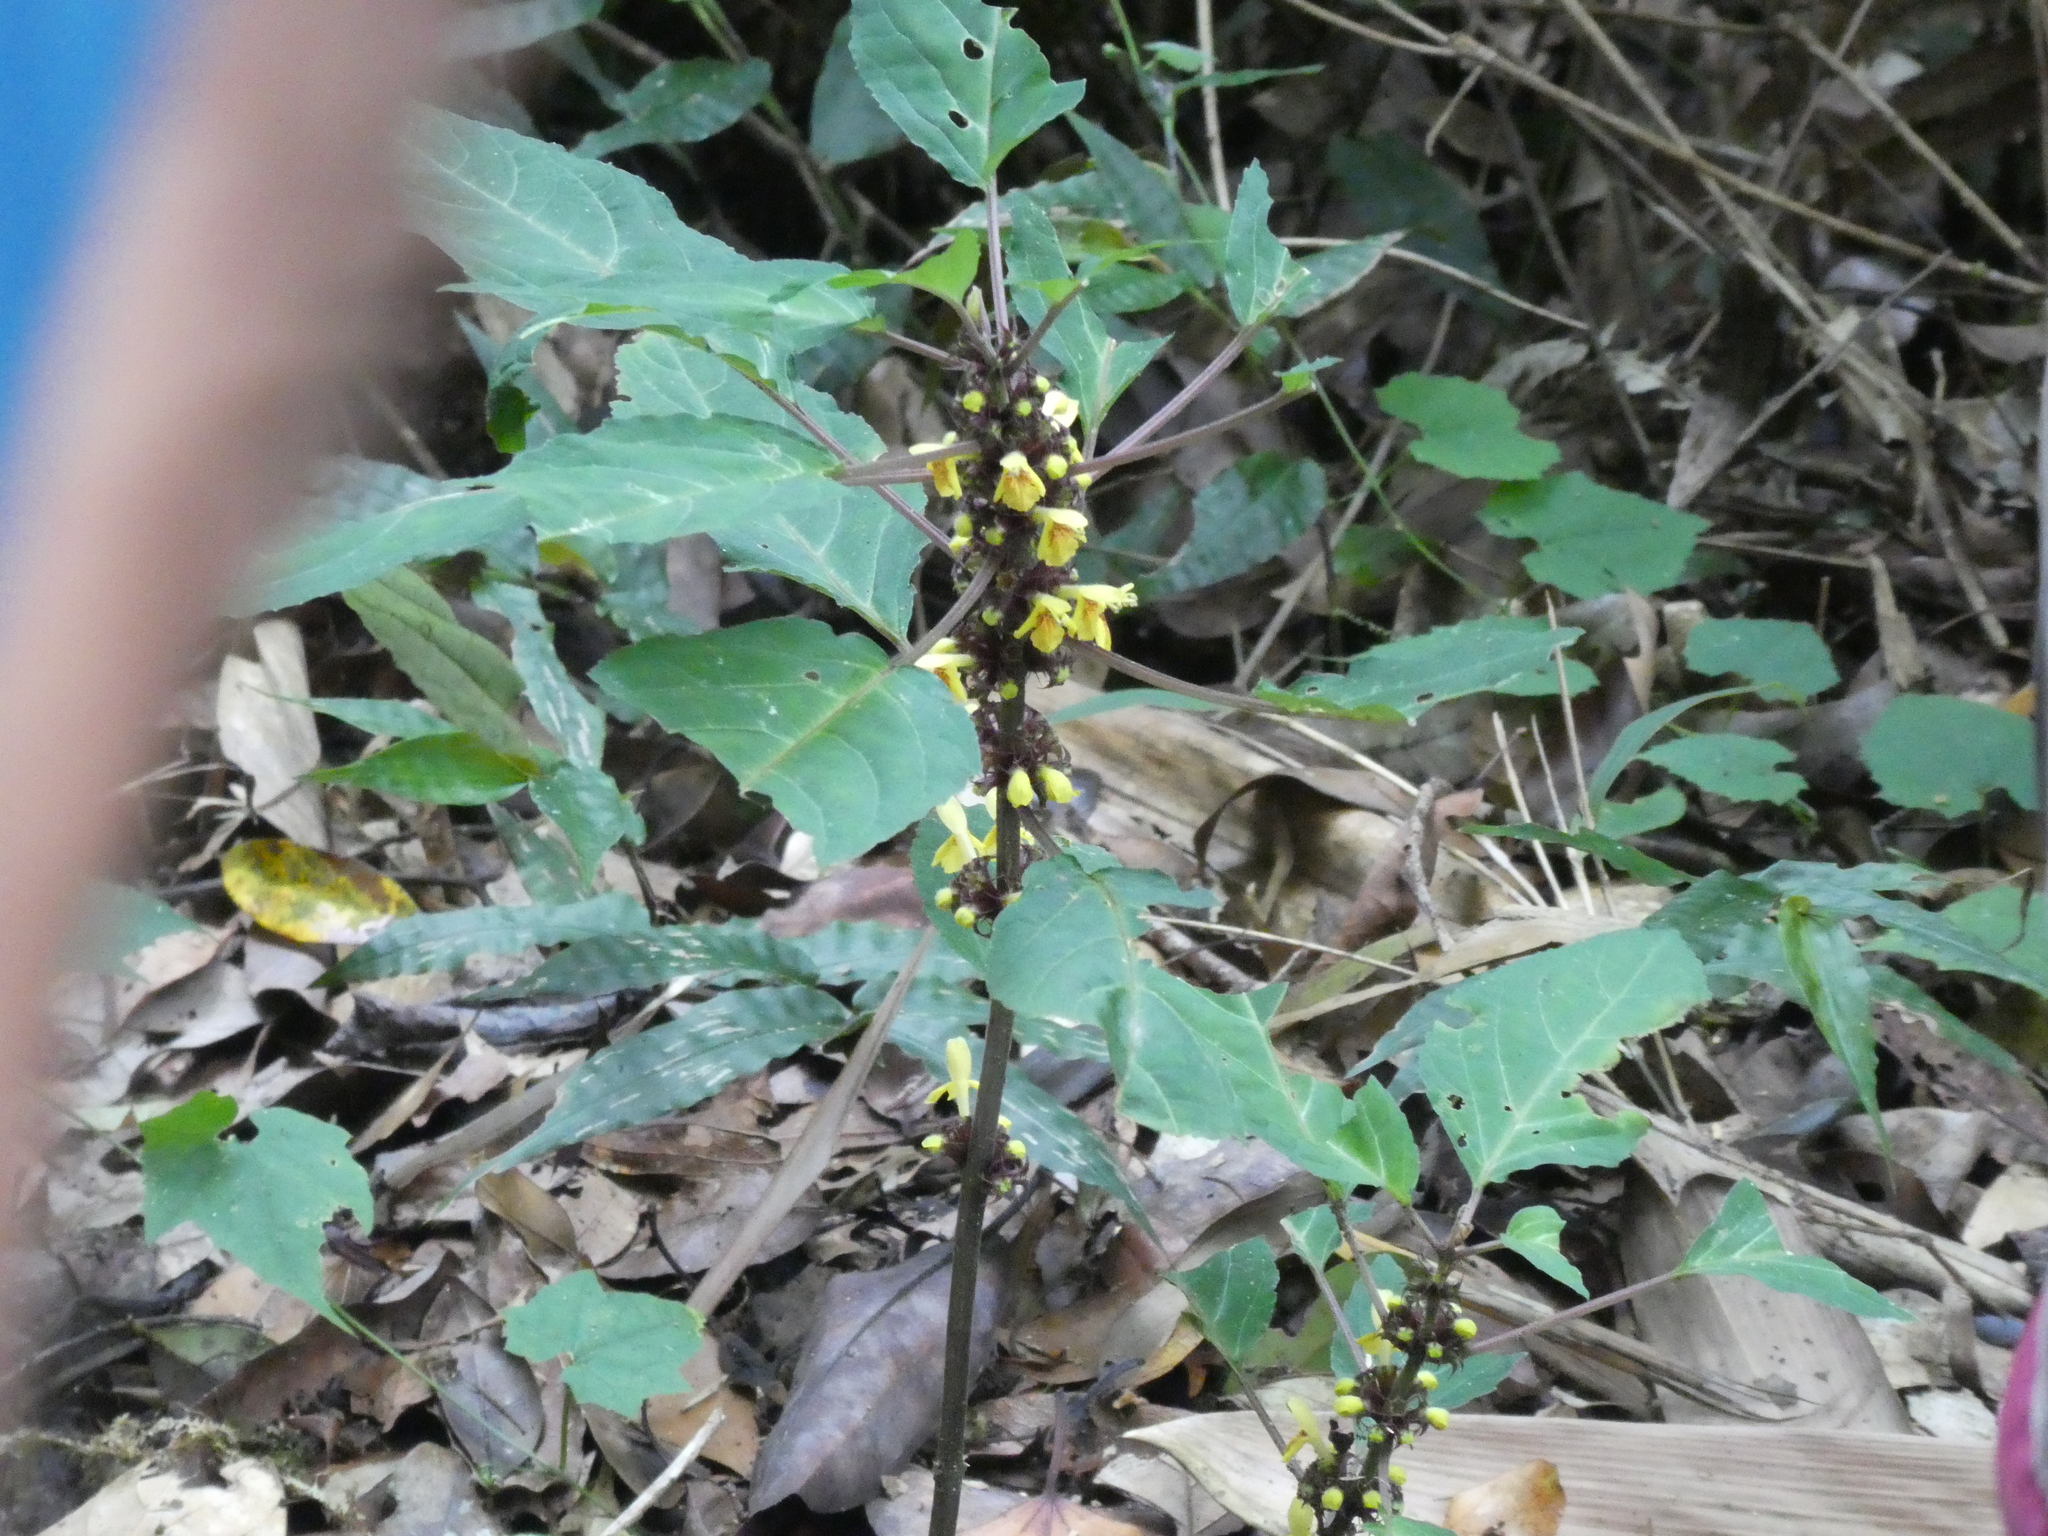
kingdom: Plantae
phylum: Tracheophyta
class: Magnoliopsida
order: Lamiales
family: Lamiaceae
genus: Paraphlomis
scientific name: Paraphlomis javanica
